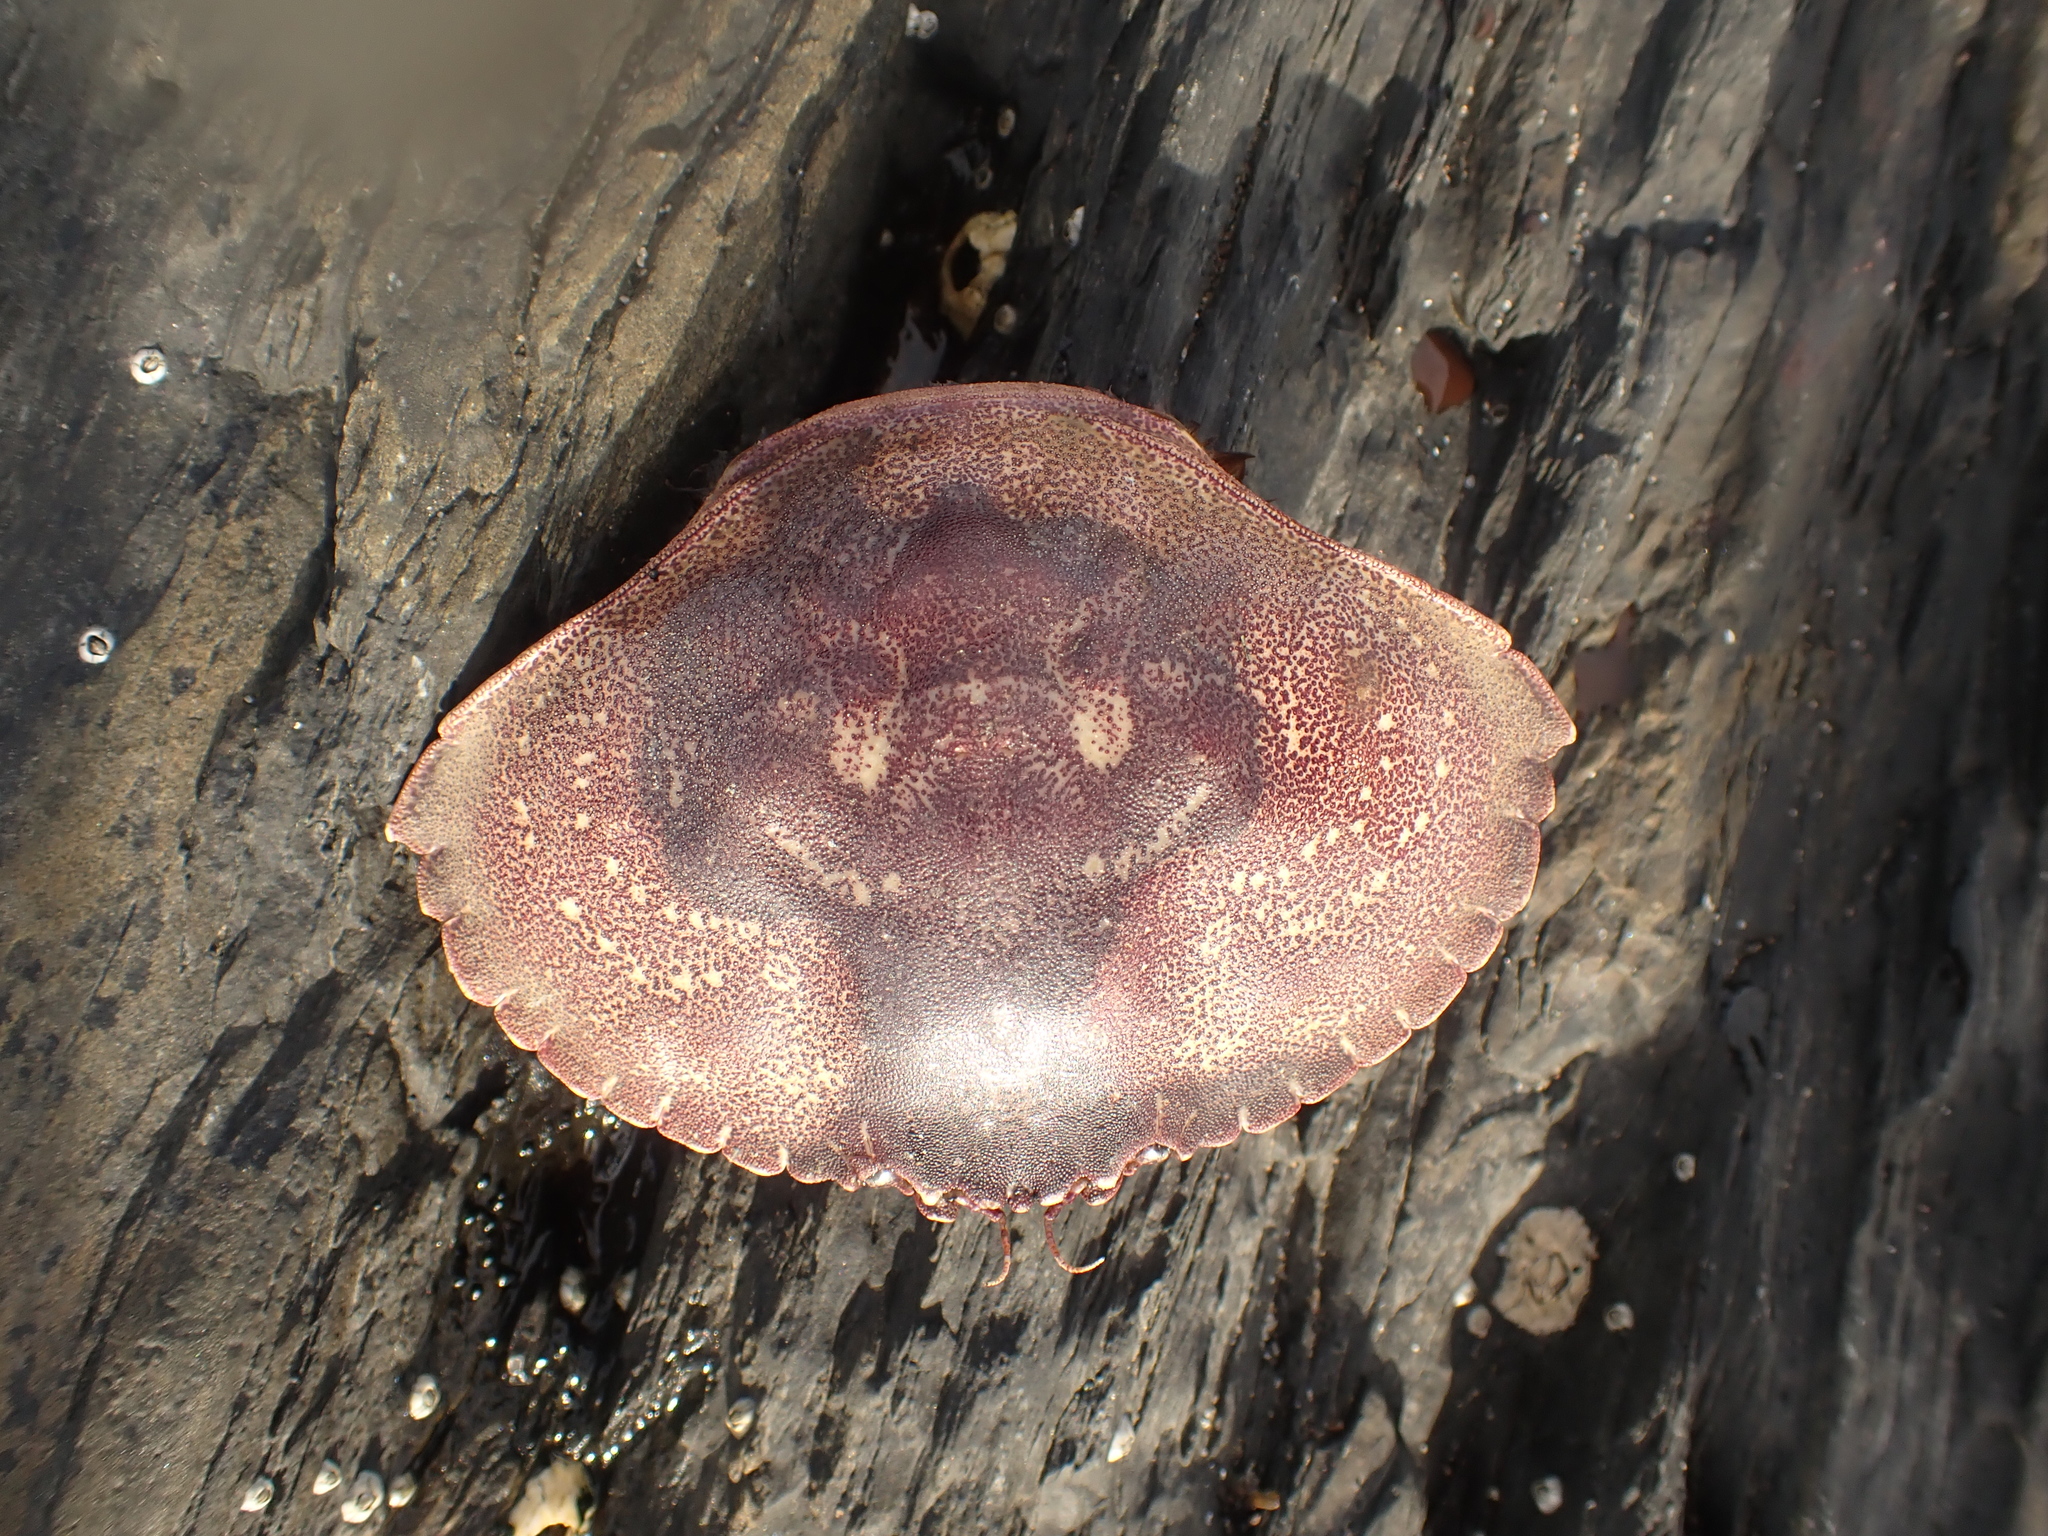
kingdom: Animalia
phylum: Arthropoda
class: Malacostraca
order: Decapoda
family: Cancridae
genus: Cancer
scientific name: Cancer irroratus
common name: Atlantic rock crab
